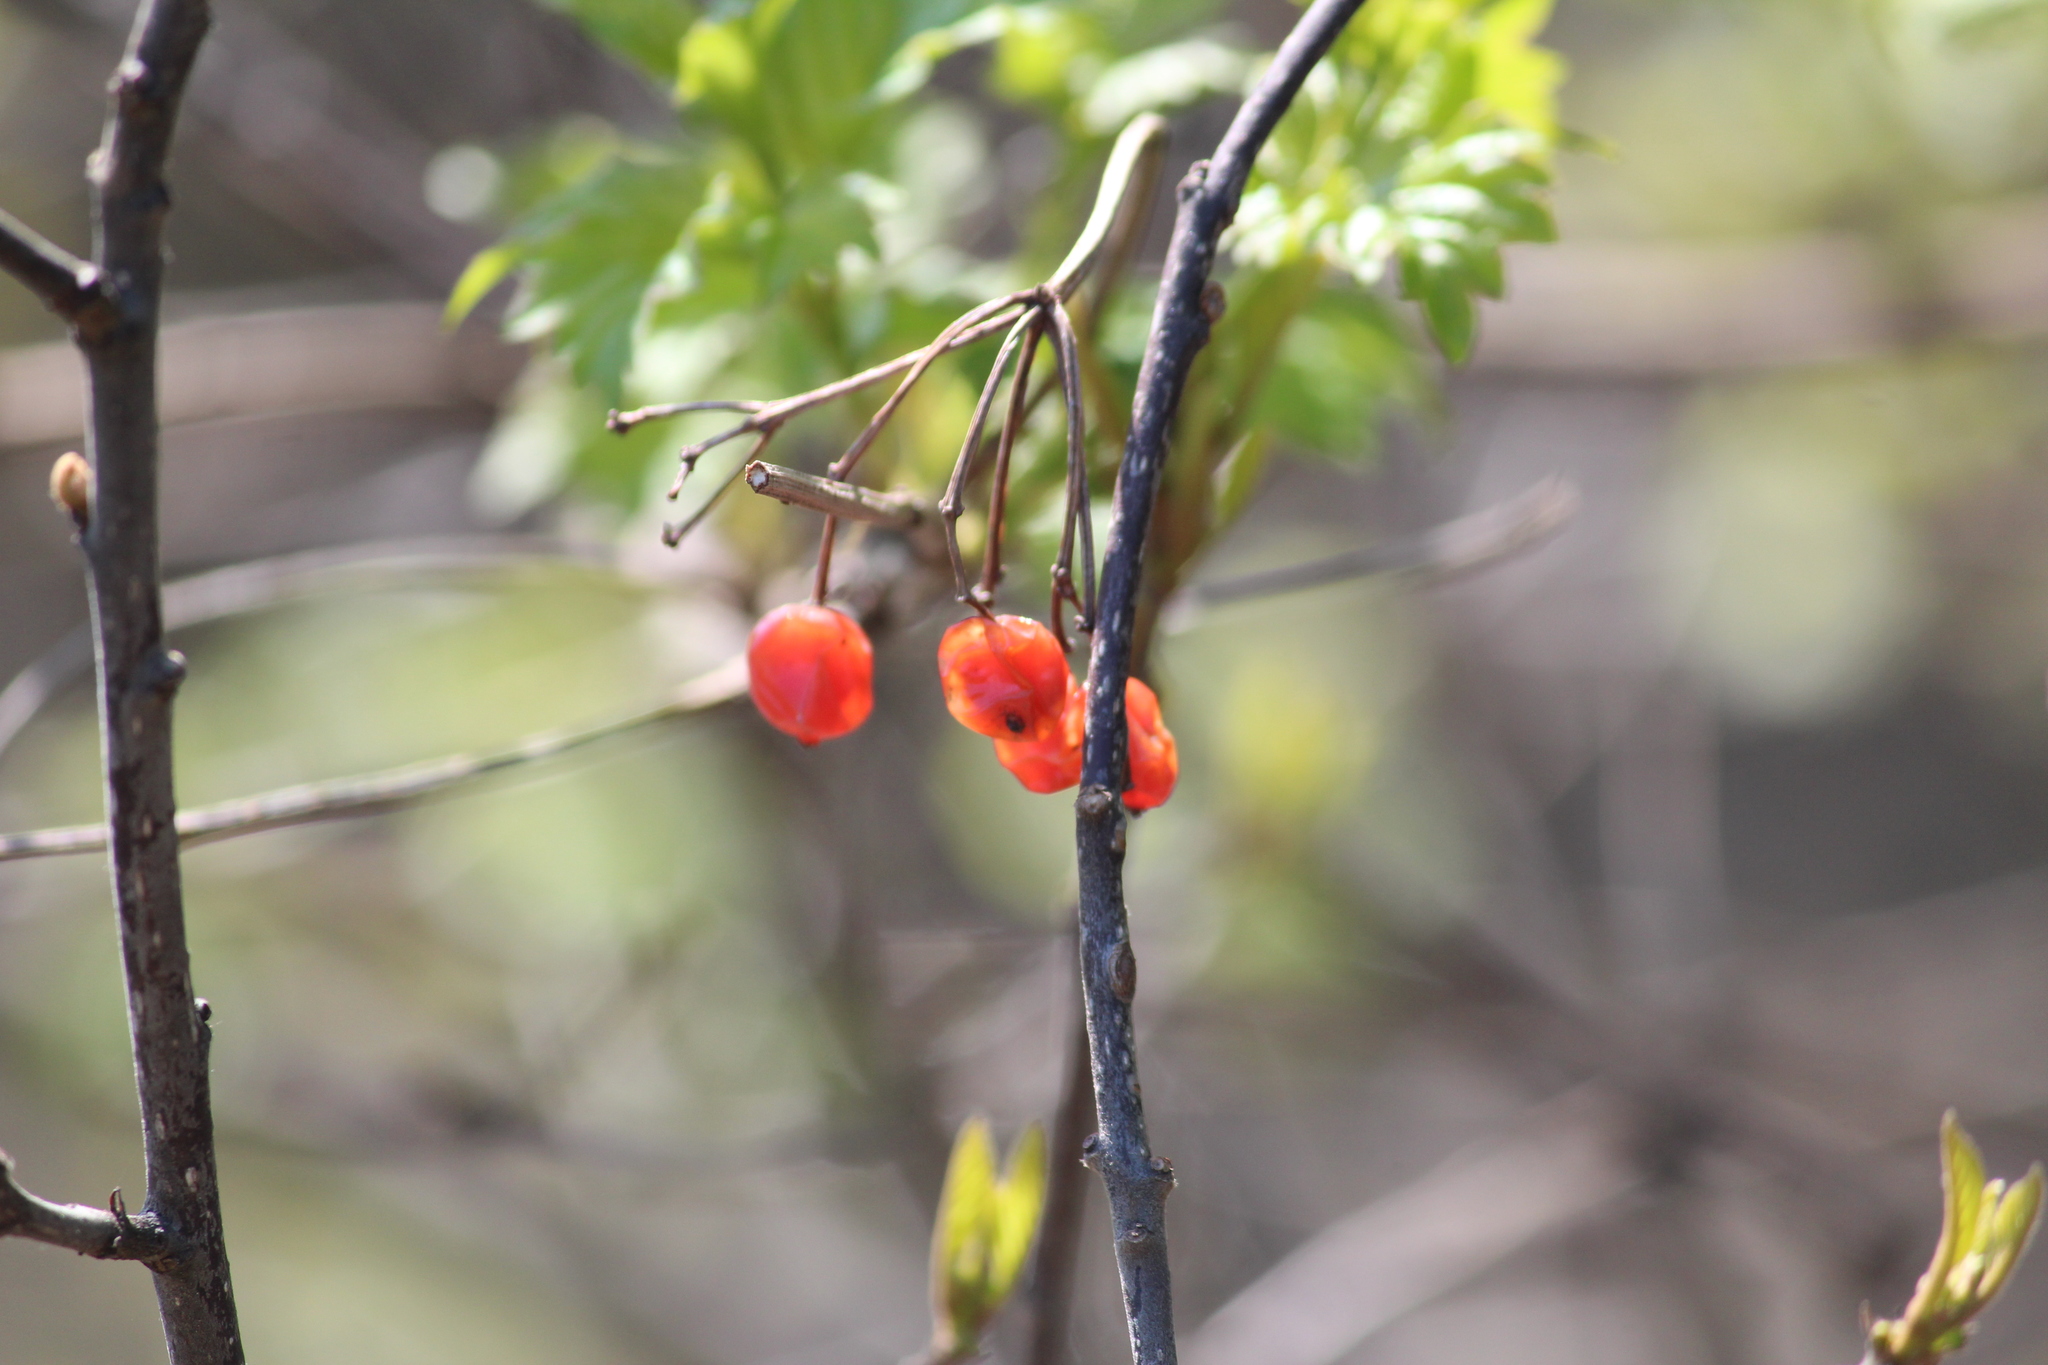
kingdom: Plantae
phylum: Tracheophyta
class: Magnoliopsida
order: Dipsacales
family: Viburnaceae
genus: Viburnum
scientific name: Viburnum opulus
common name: Guelder-rose
